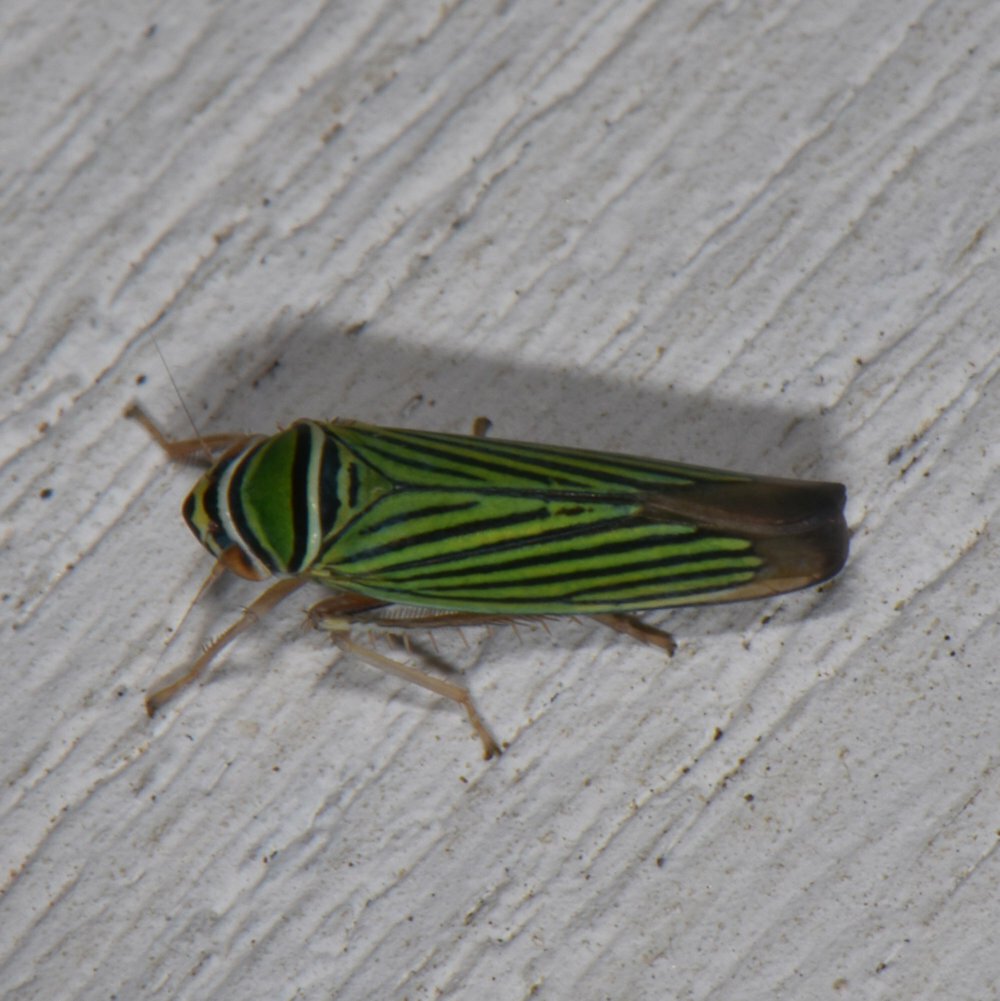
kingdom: Animalia
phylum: Arthropoda
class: Insecta
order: Hemiptera
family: Cicadellidae
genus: Tylozygus
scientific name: Tylozygus bifidus
